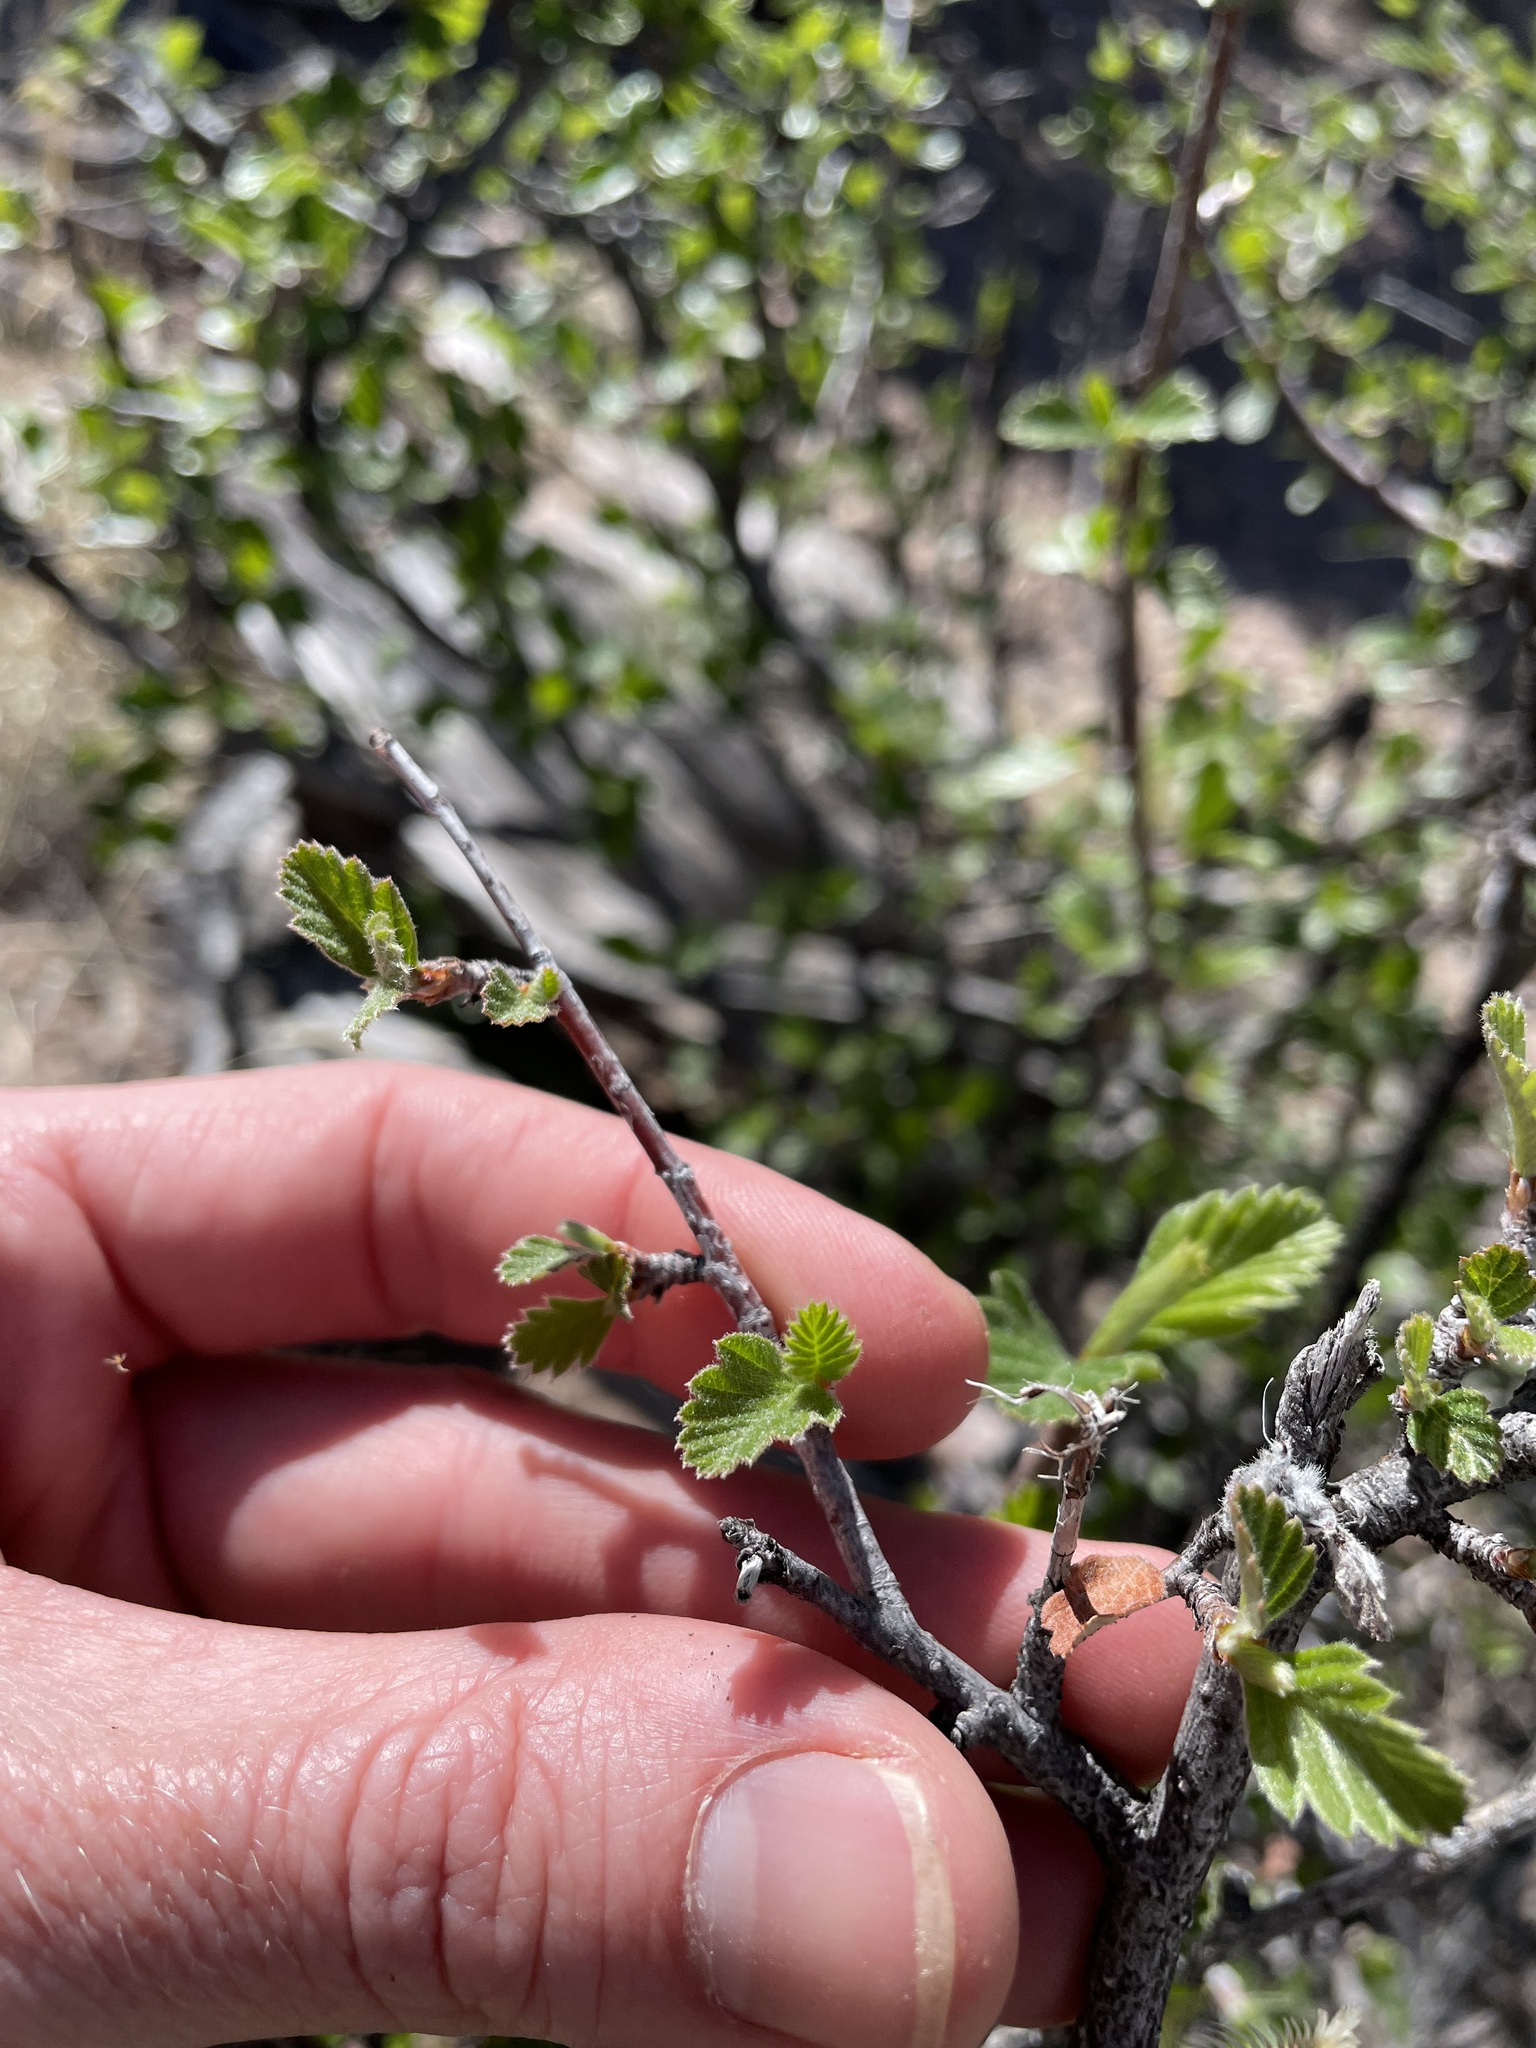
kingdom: Plantae
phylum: Tracheophyta
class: Magnoliopsida
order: Rosales
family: Rosaceae
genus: Cercocarpus
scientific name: Cercocarpus montanus
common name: Alder-leaf cercocarpus
